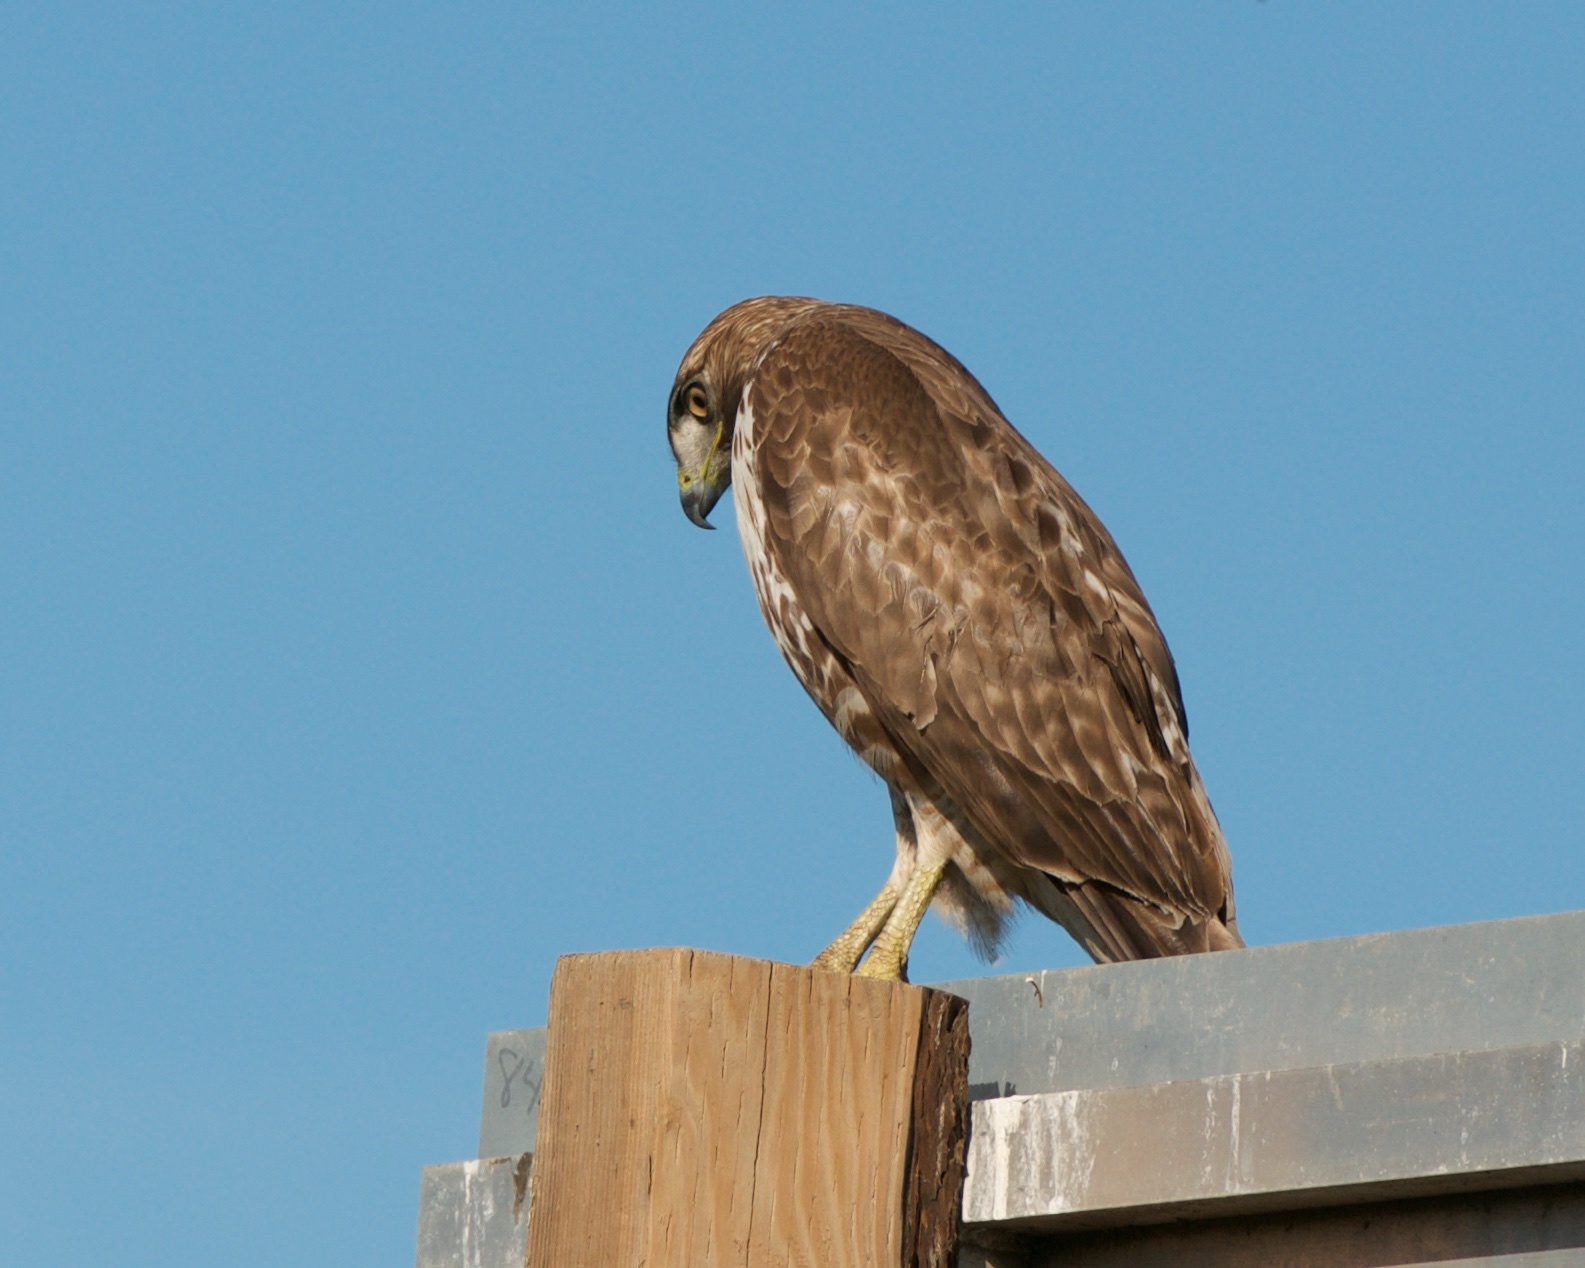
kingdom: Animalia
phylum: Chordata
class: Aves
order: Accipitriformes
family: Accipitridae
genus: Buteo
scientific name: Buteo jamaicensis
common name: Red-tailed hawk
